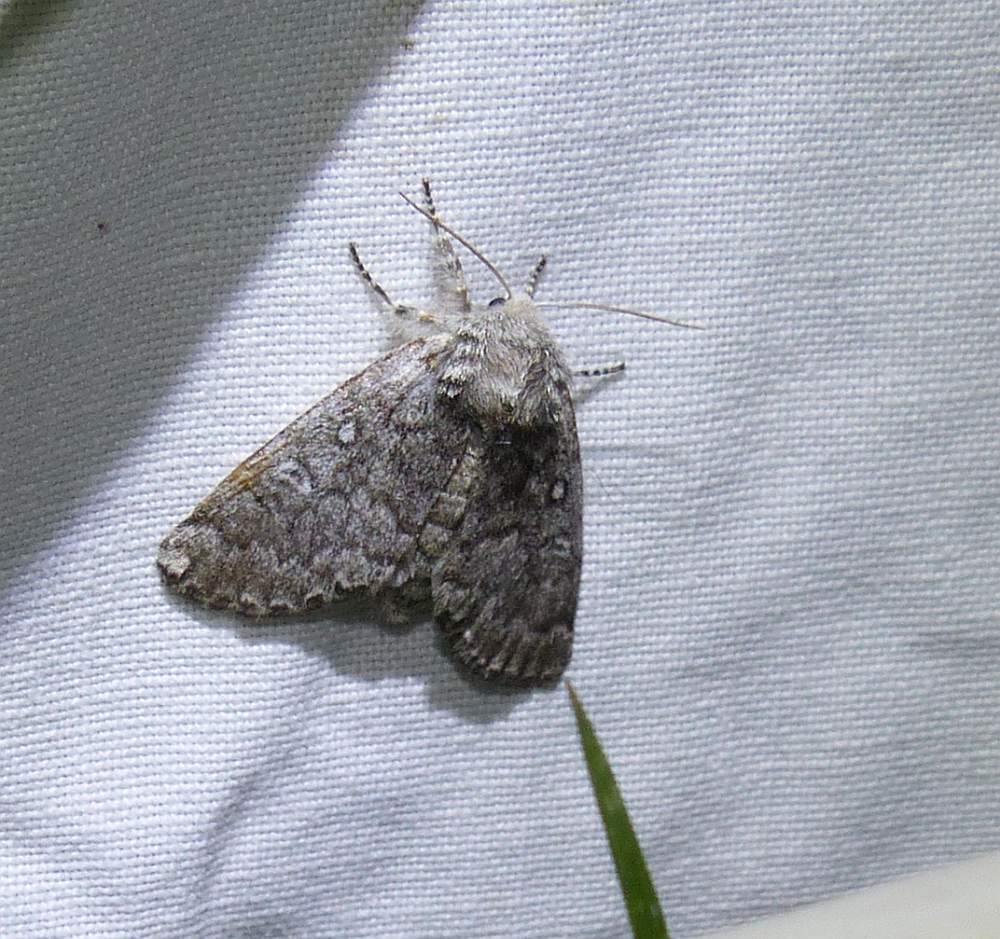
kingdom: Animalia
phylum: Arthropoda
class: Insecta
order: Lepidoptera
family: Noctuidae
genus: Colocasia
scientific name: Colocasia propinquilinea
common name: Close-banded demas
